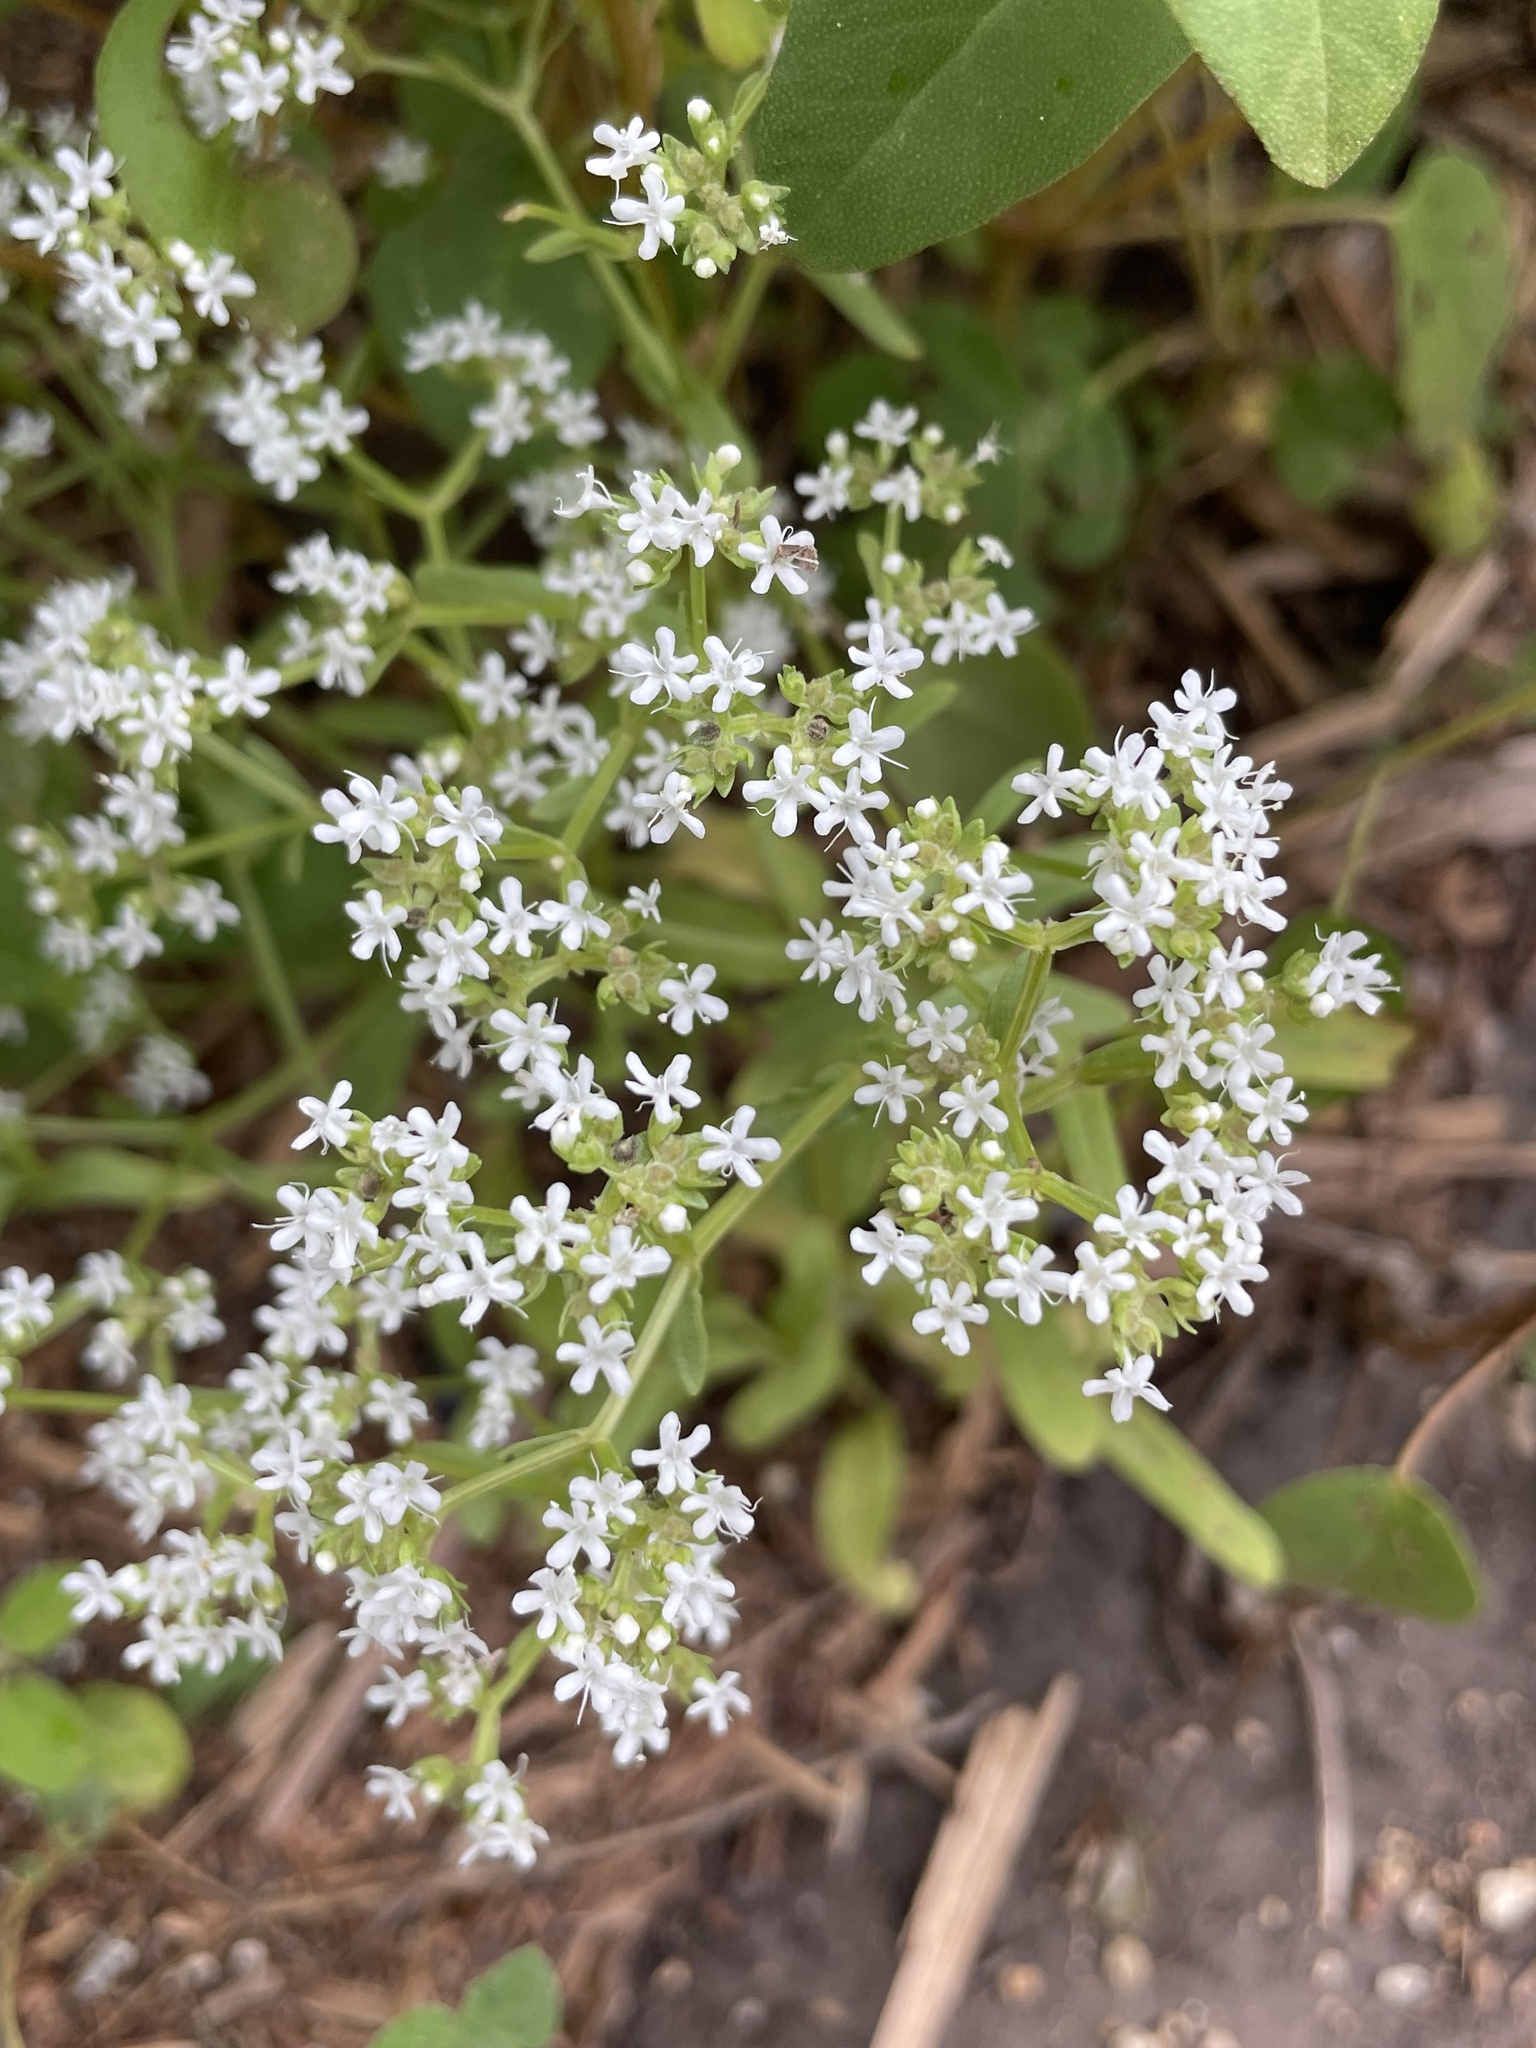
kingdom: Plantae
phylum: Tracheophyta
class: Magnoliopsida
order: Dipsacales
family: Caprifoliaceae
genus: Valerianella
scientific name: Valerianella amarella
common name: Hariy cornsalad
